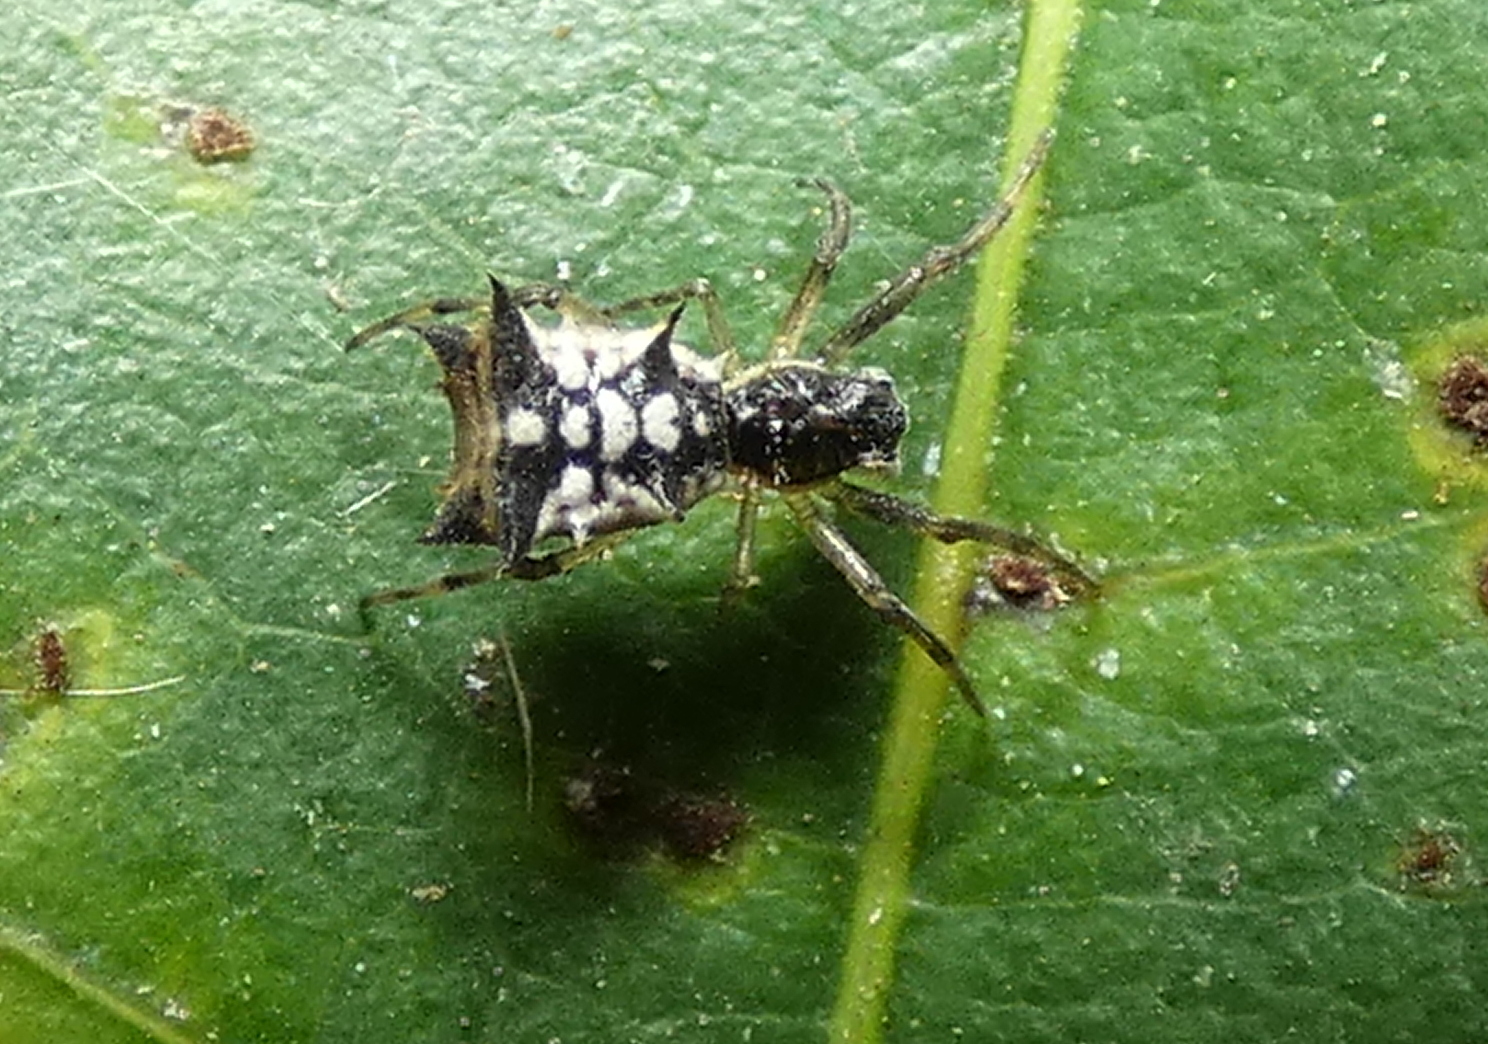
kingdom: Animalia
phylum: Arthropoda
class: Arachnida
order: Araneae
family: Araneidae
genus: Micrathena
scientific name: Micrathena picta
